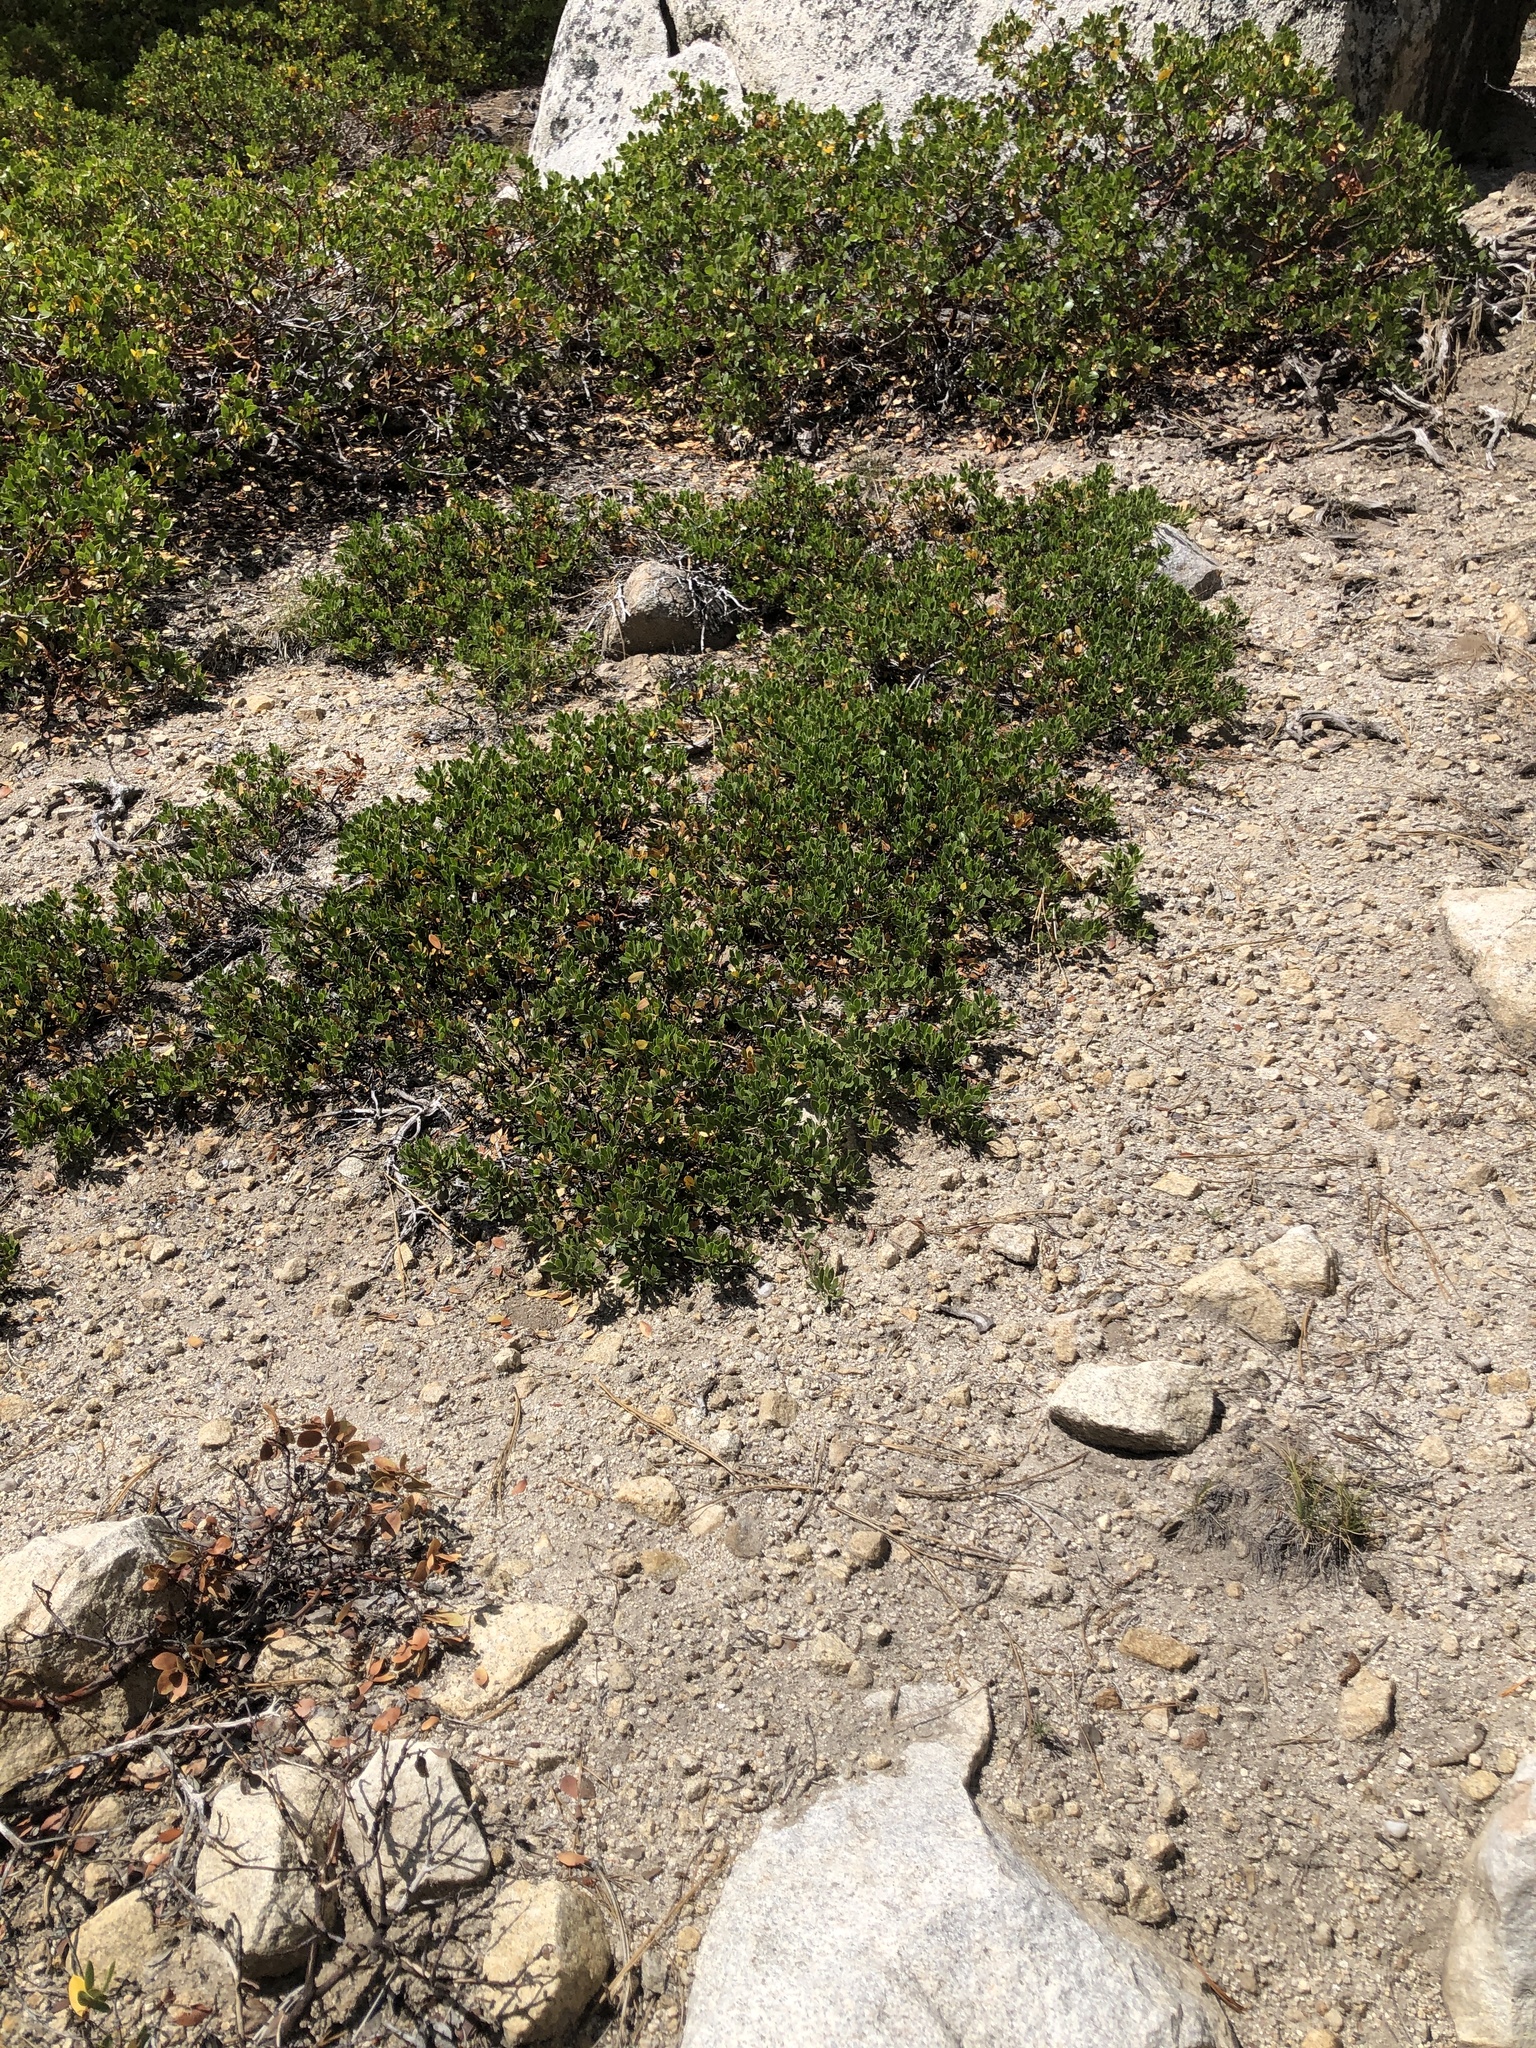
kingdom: Plantae
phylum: Tracheophyta
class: Magnoliopsida
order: Ericales
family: Ericaceae
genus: Arctostaphylos
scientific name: Arctostaphylos nevadensis
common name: Pinemat manzanita
